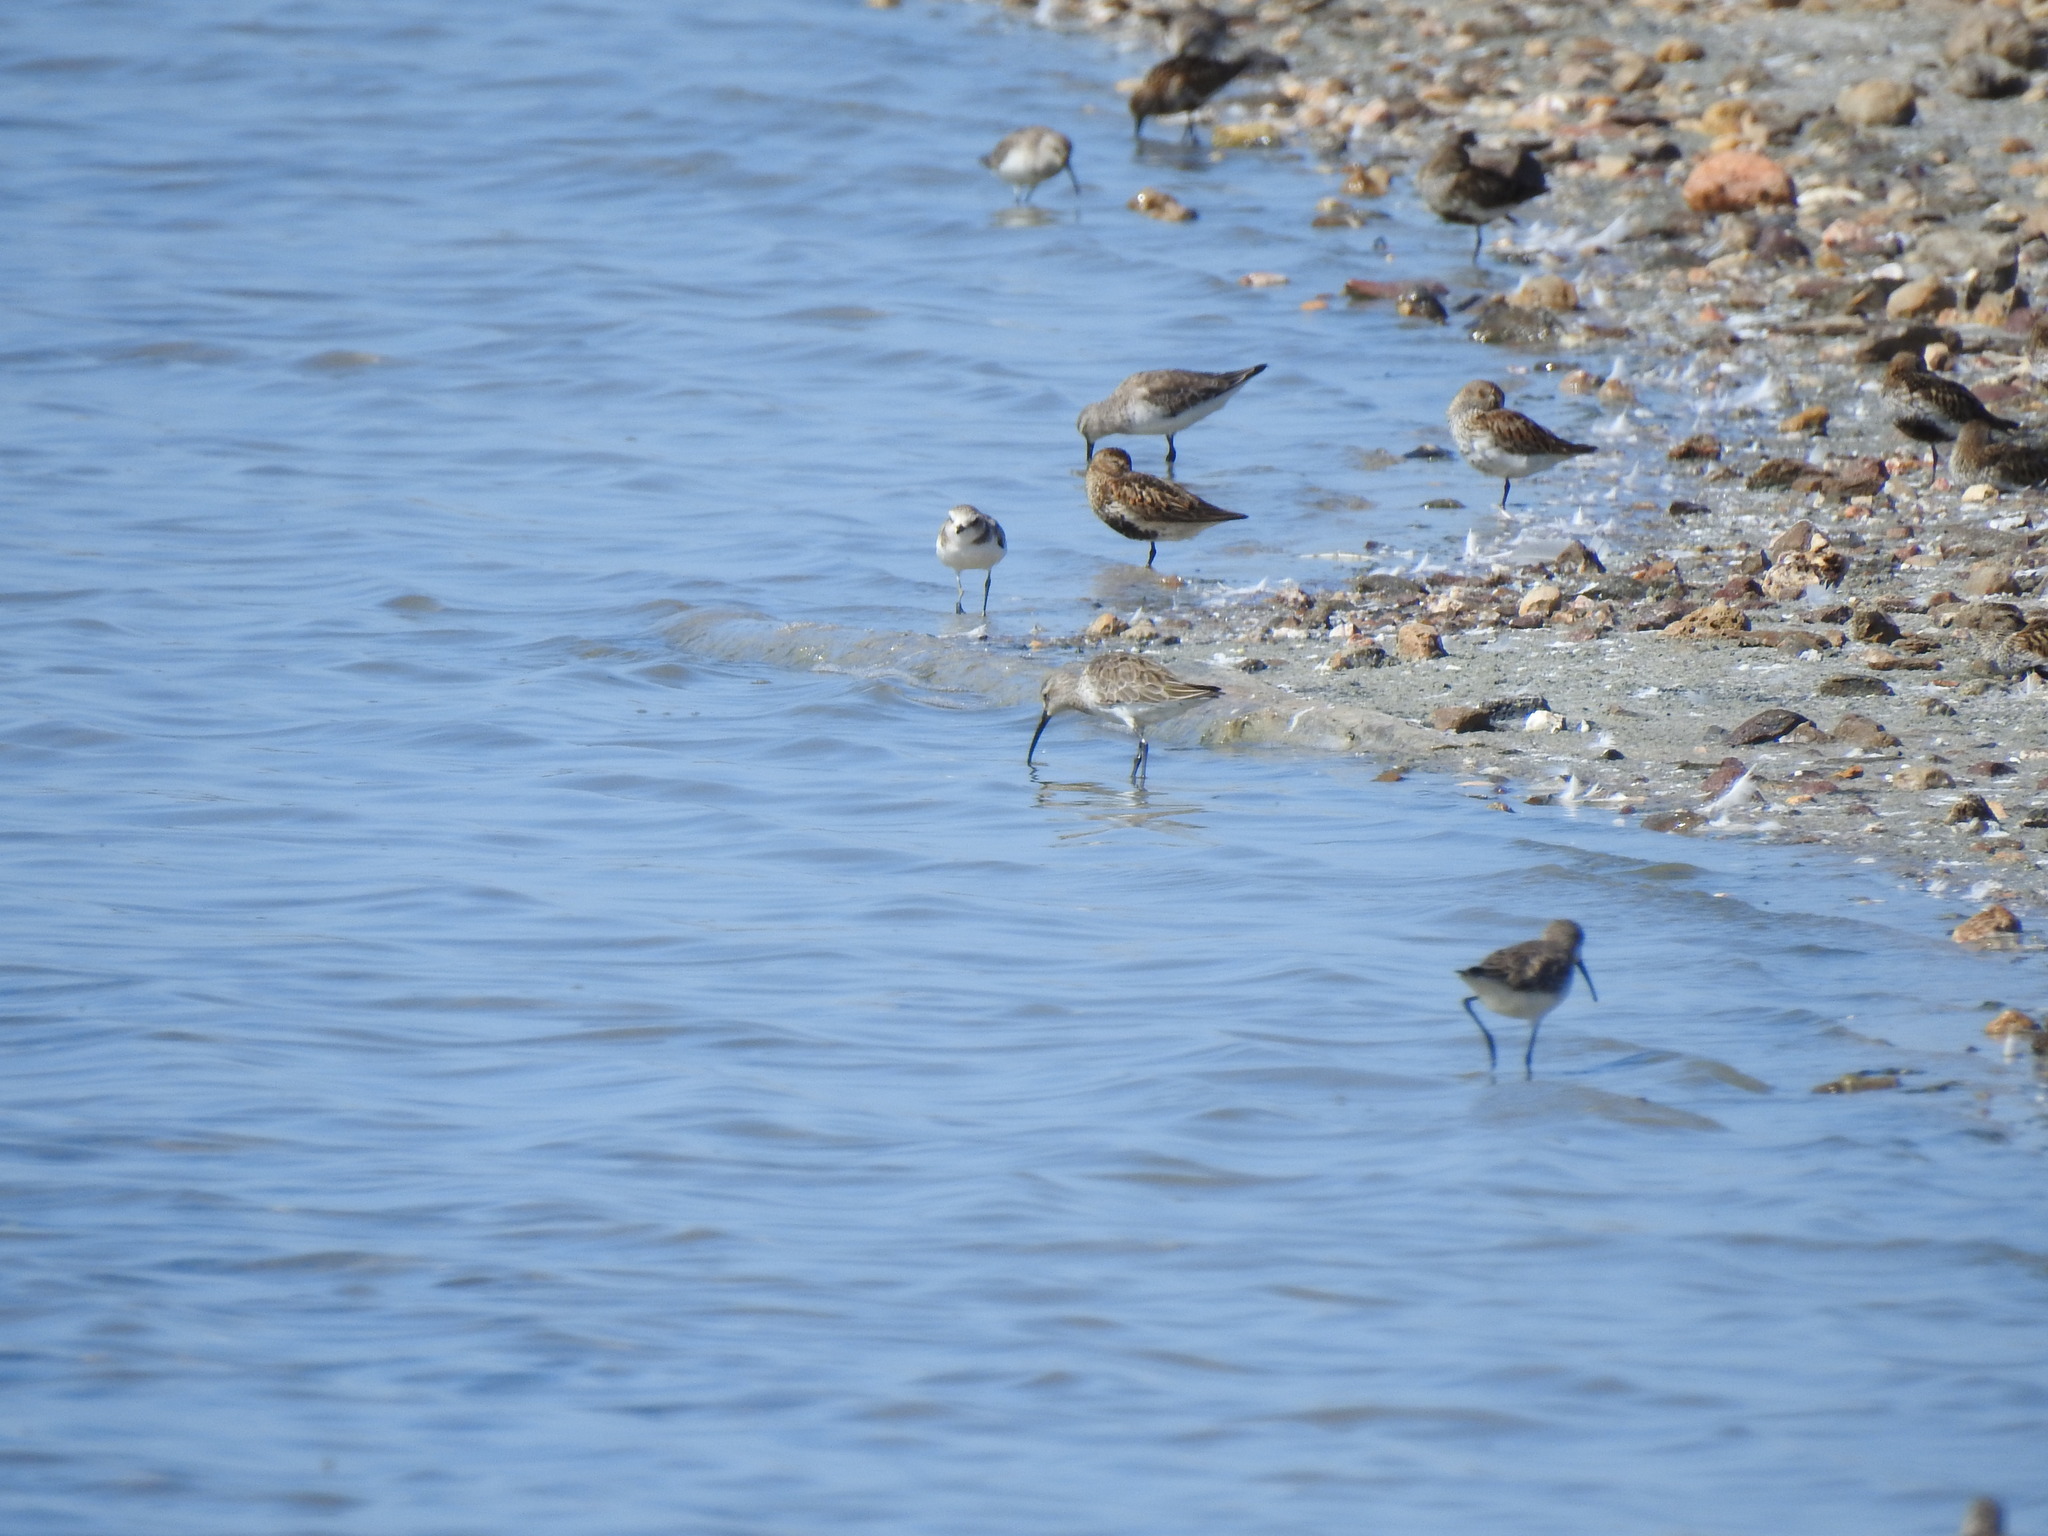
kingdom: Animalia
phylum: Chordata
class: Aves
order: Charadriiformes
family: Scolopacidae
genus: Calidris
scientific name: Calidris ferruginea
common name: Curlew sandpiper
